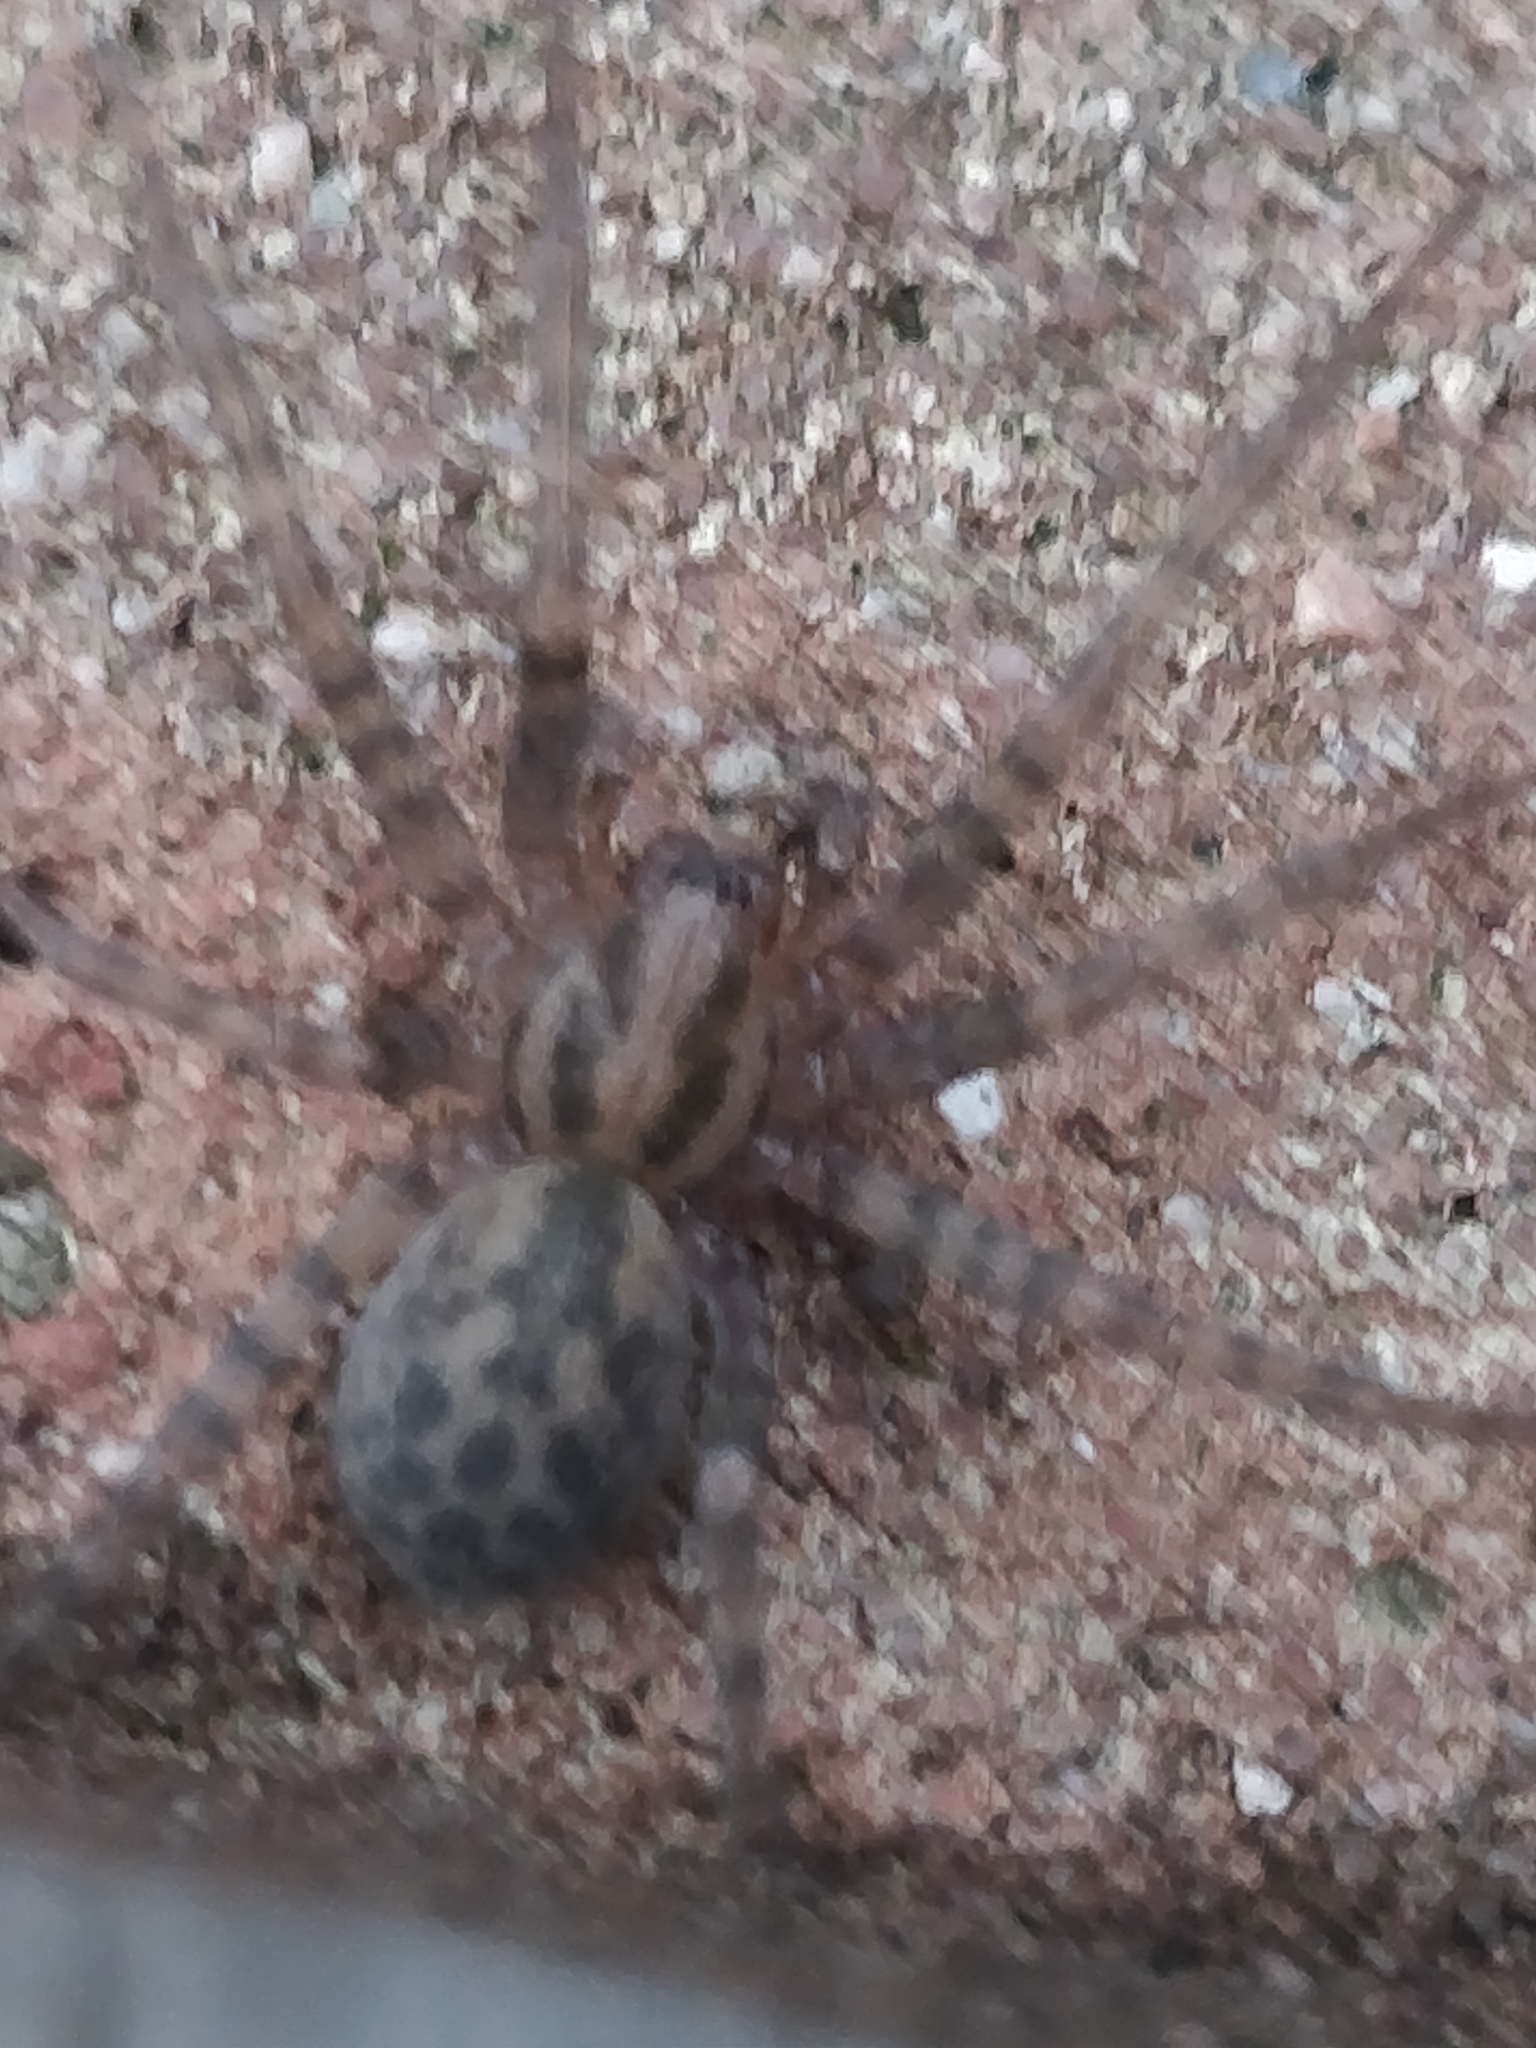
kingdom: Animalia
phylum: Arthropoda
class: Arachnida
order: Araneae
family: Agelenidae
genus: Tegenaria
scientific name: Tegenaria domestica
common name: Barn funnel weaver
